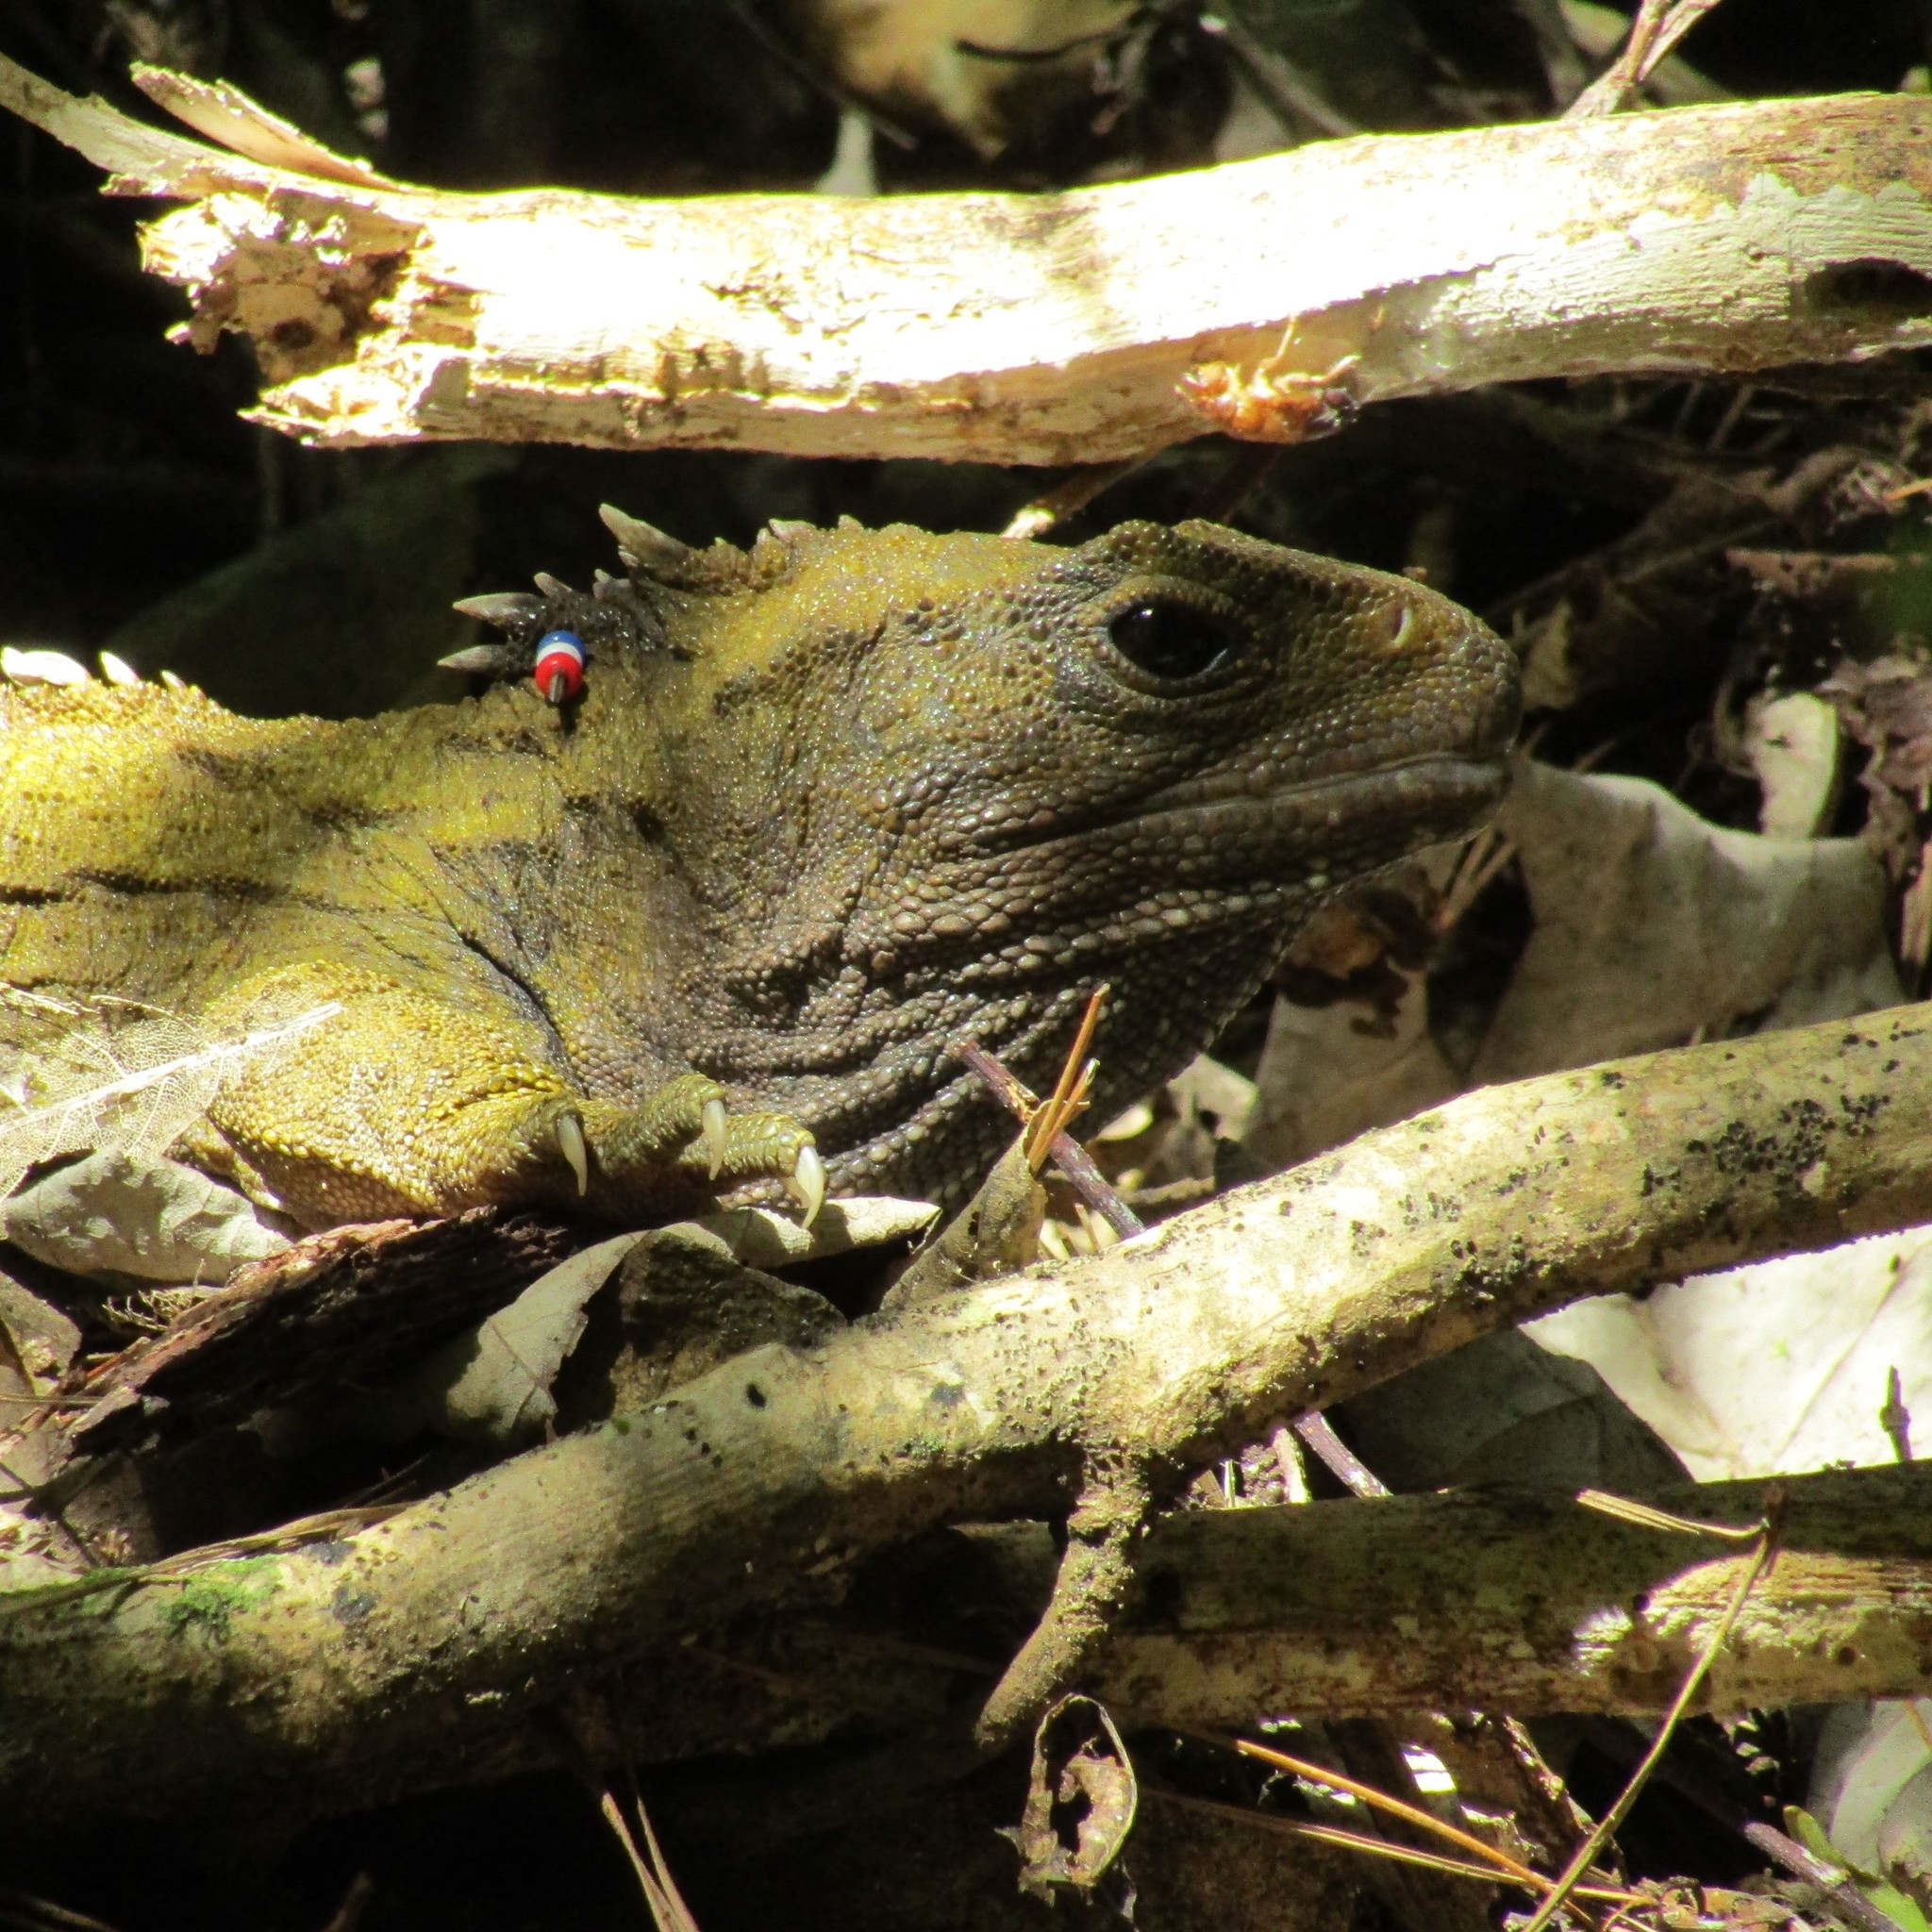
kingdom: Animalia
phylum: Chordata
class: Sphenodontia
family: Sphenodontidae
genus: Sphenodon
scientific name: Sphenodon punctatus
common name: Tuatara
